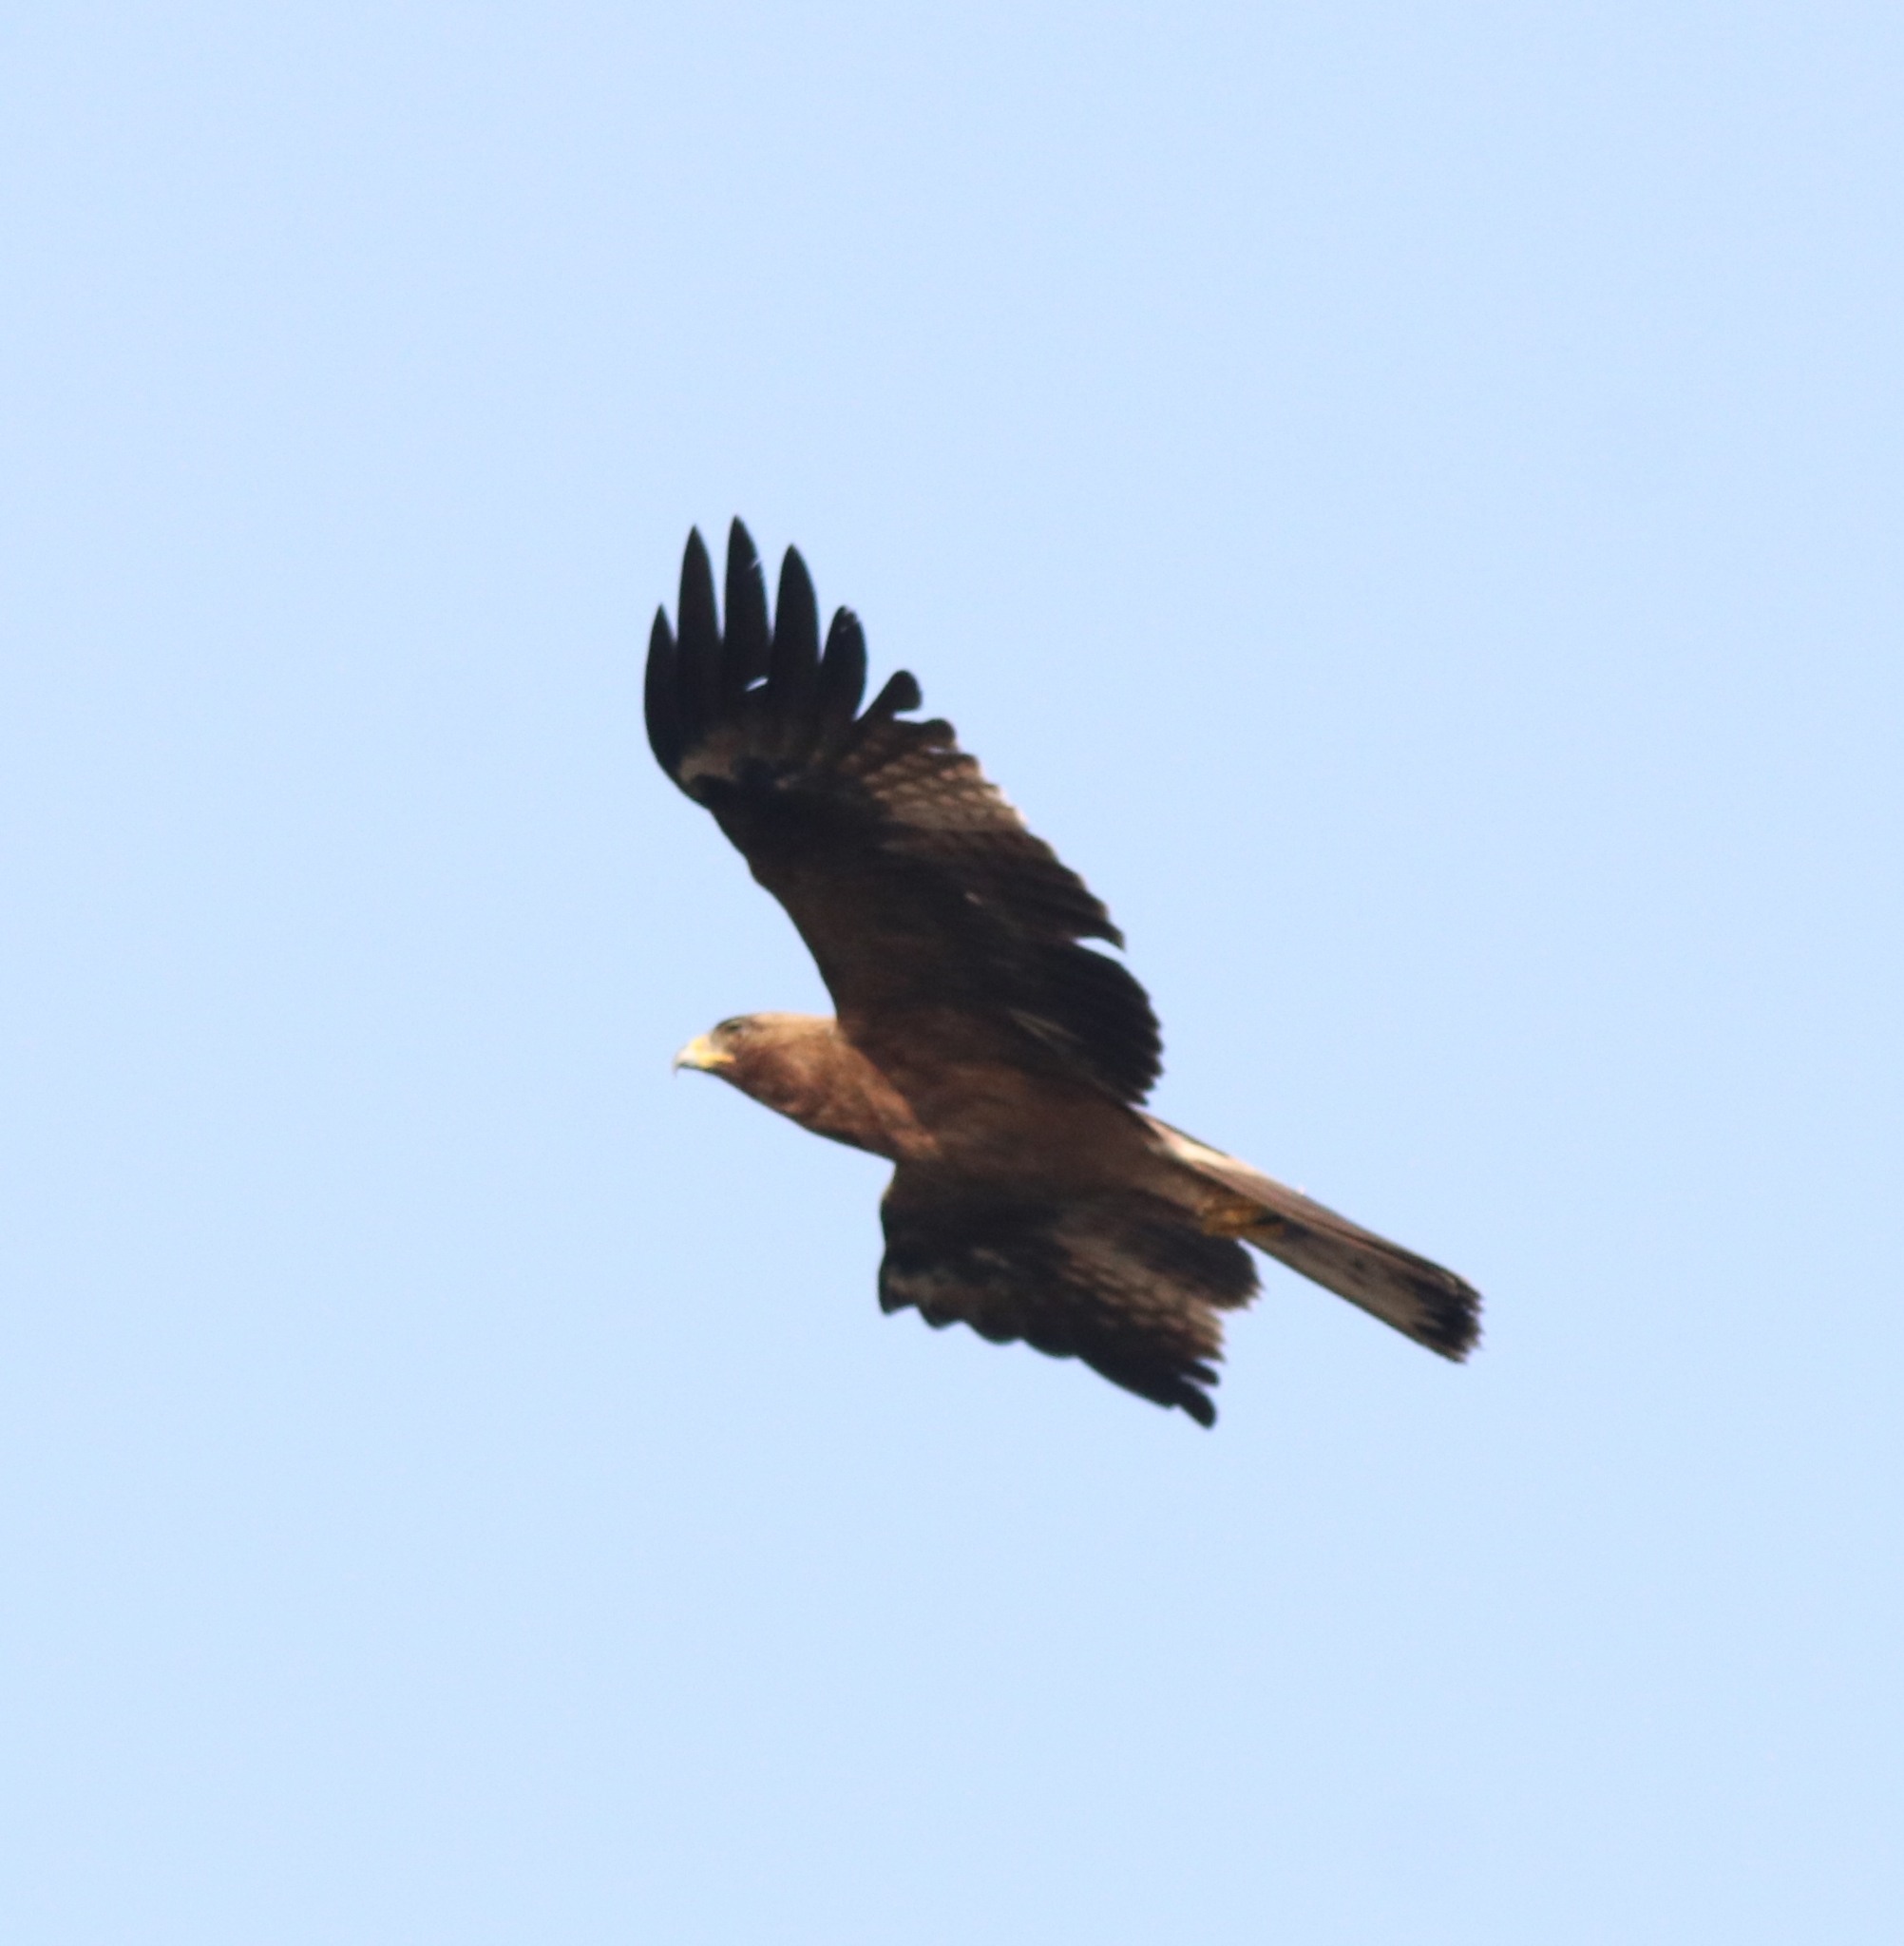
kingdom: Animalia
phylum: Chordata
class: Aves
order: Accipitriformes
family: Accipitridae
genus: Hieraaetus
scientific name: Hieraaetus pennatus
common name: Booted eagle
